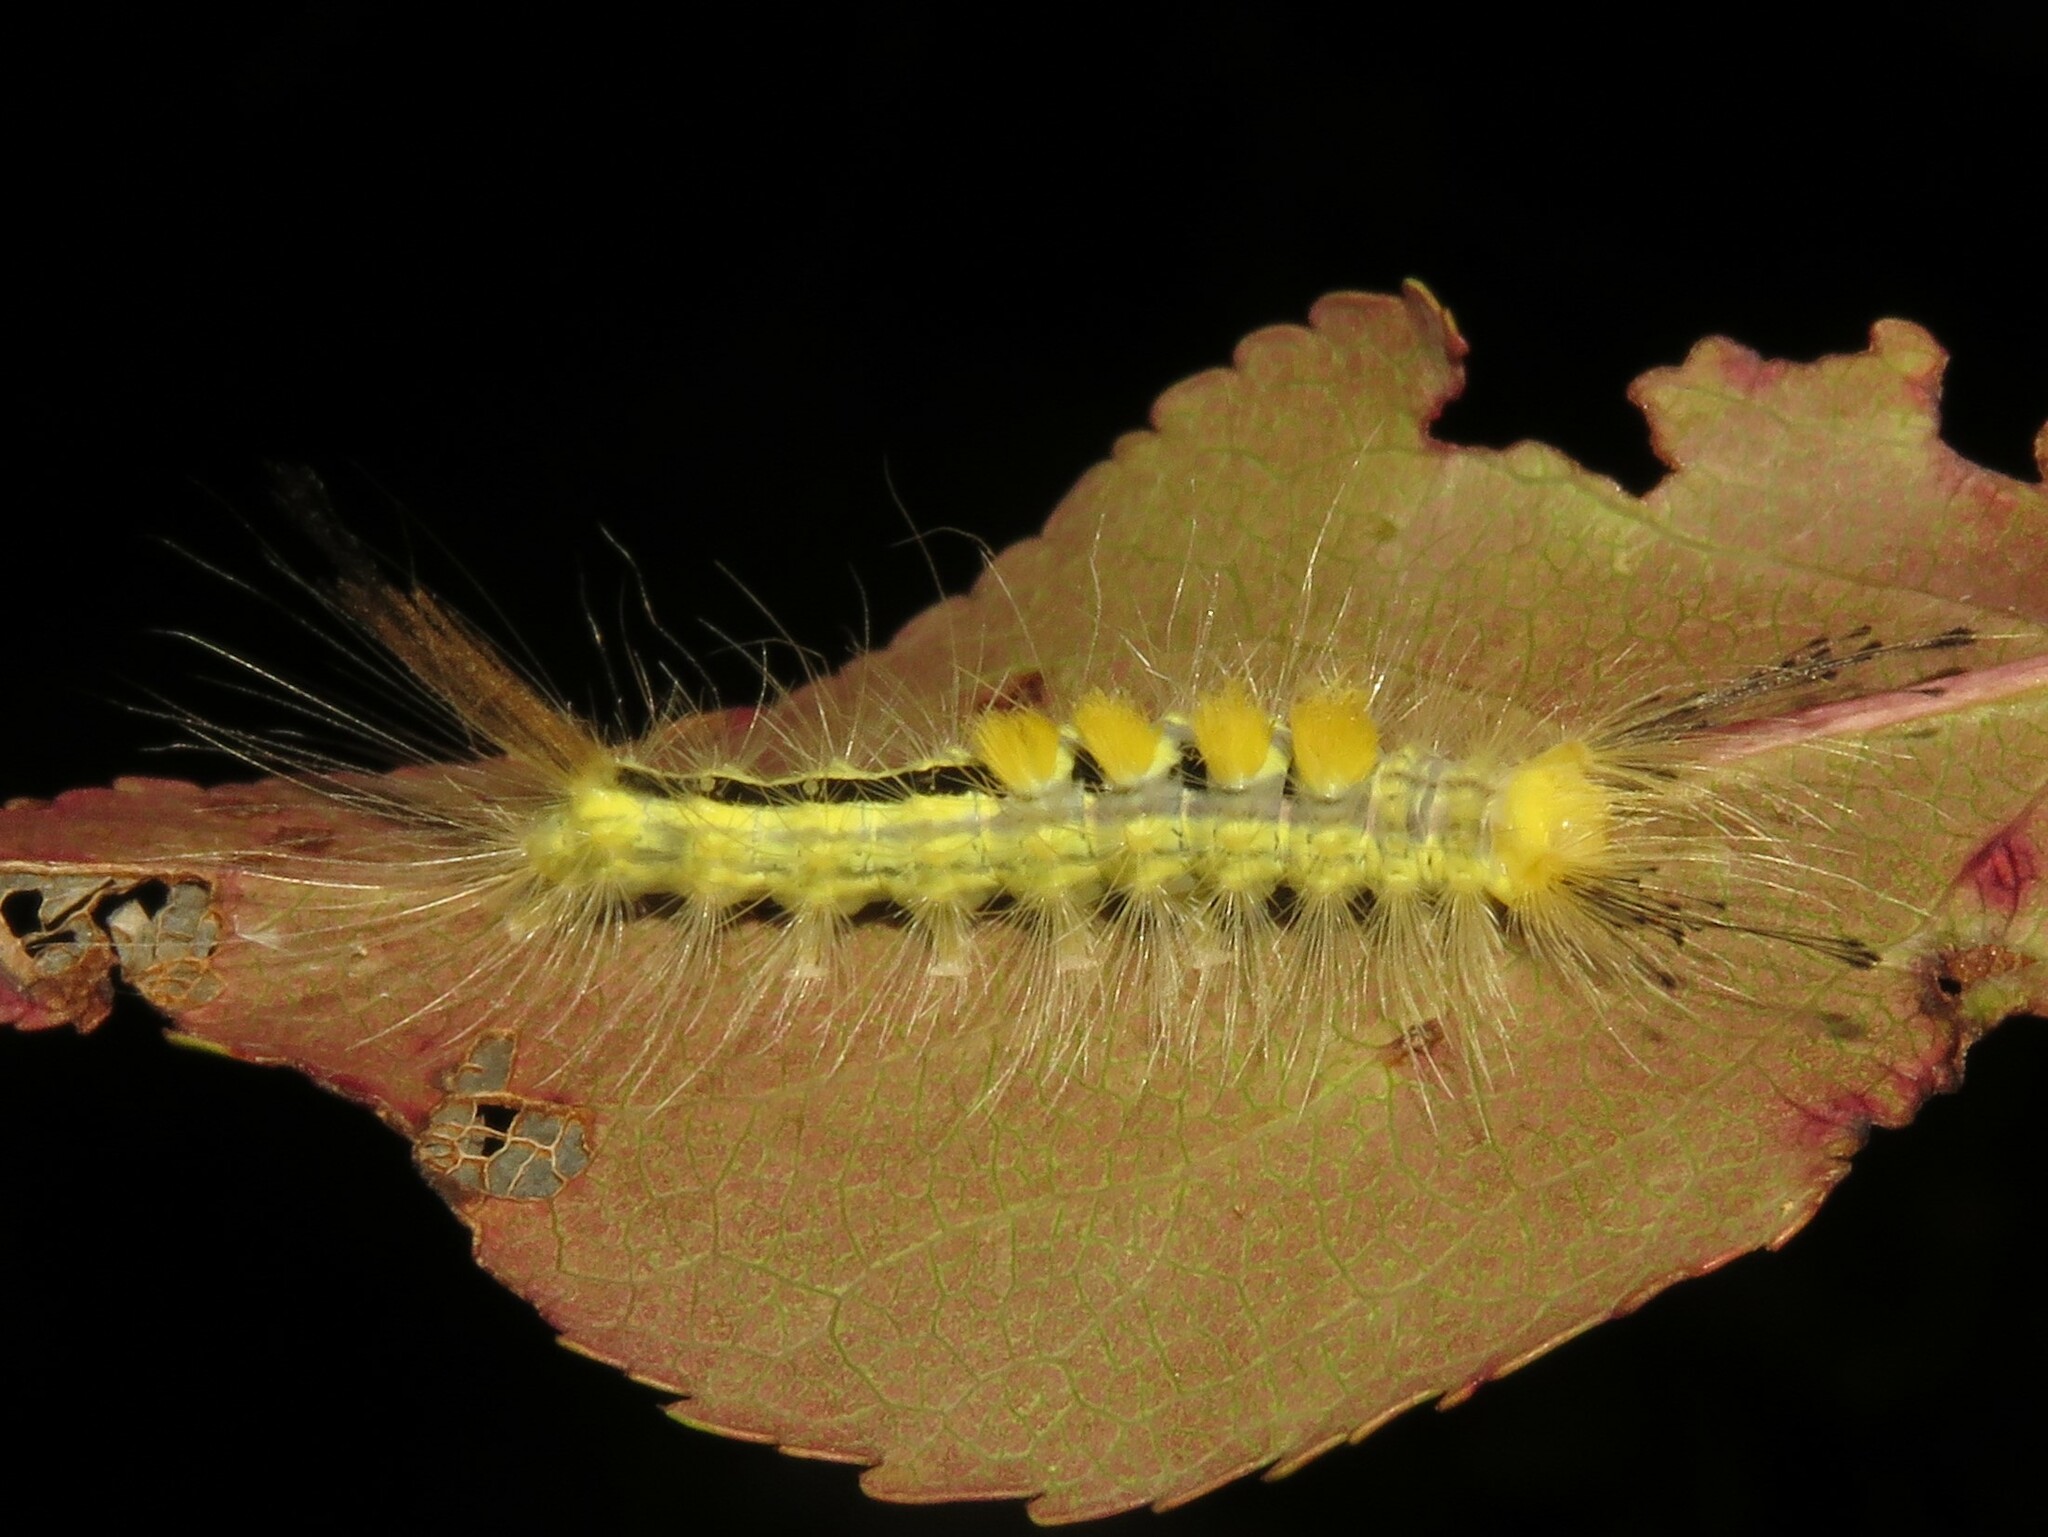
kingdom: Animalia
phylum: Arthropoda
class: Insecta
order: Lepidoptera
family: Erebidae
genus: Orgyia
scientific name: Orgyia definita
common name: Definite tussock moth
